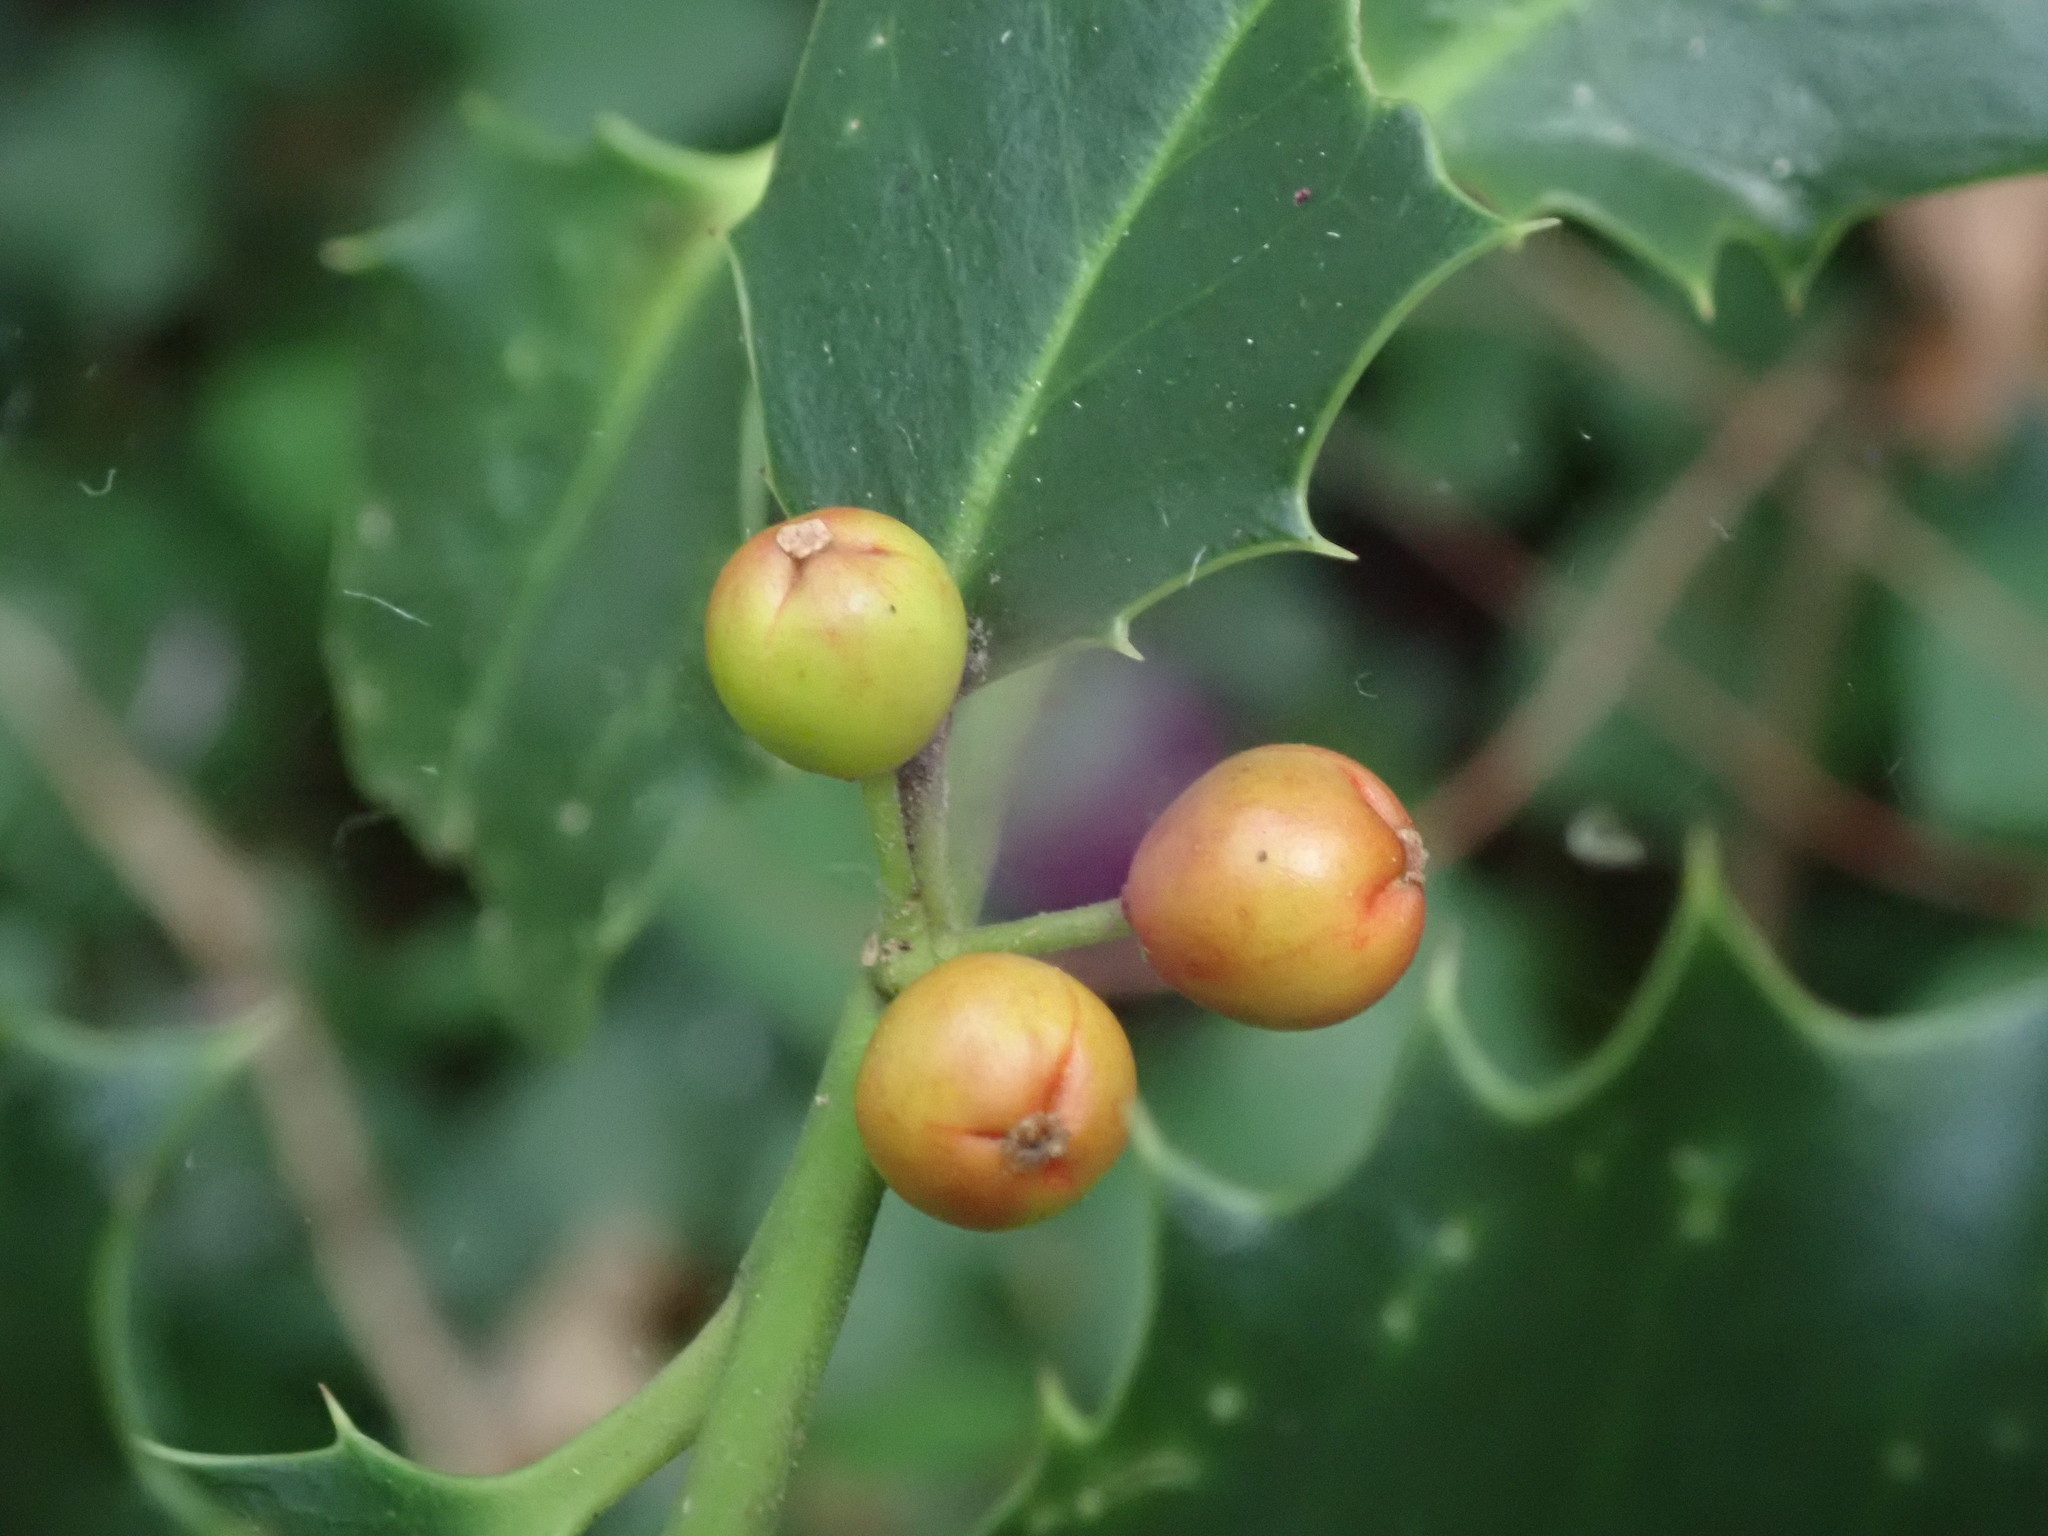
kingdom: Plantae
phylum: Tracheophyta
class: Magnoliopsida
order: Aquifoliales
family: Aquifoliaceae
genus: Ilex
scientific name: Ilex aquifolium
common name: English holly
